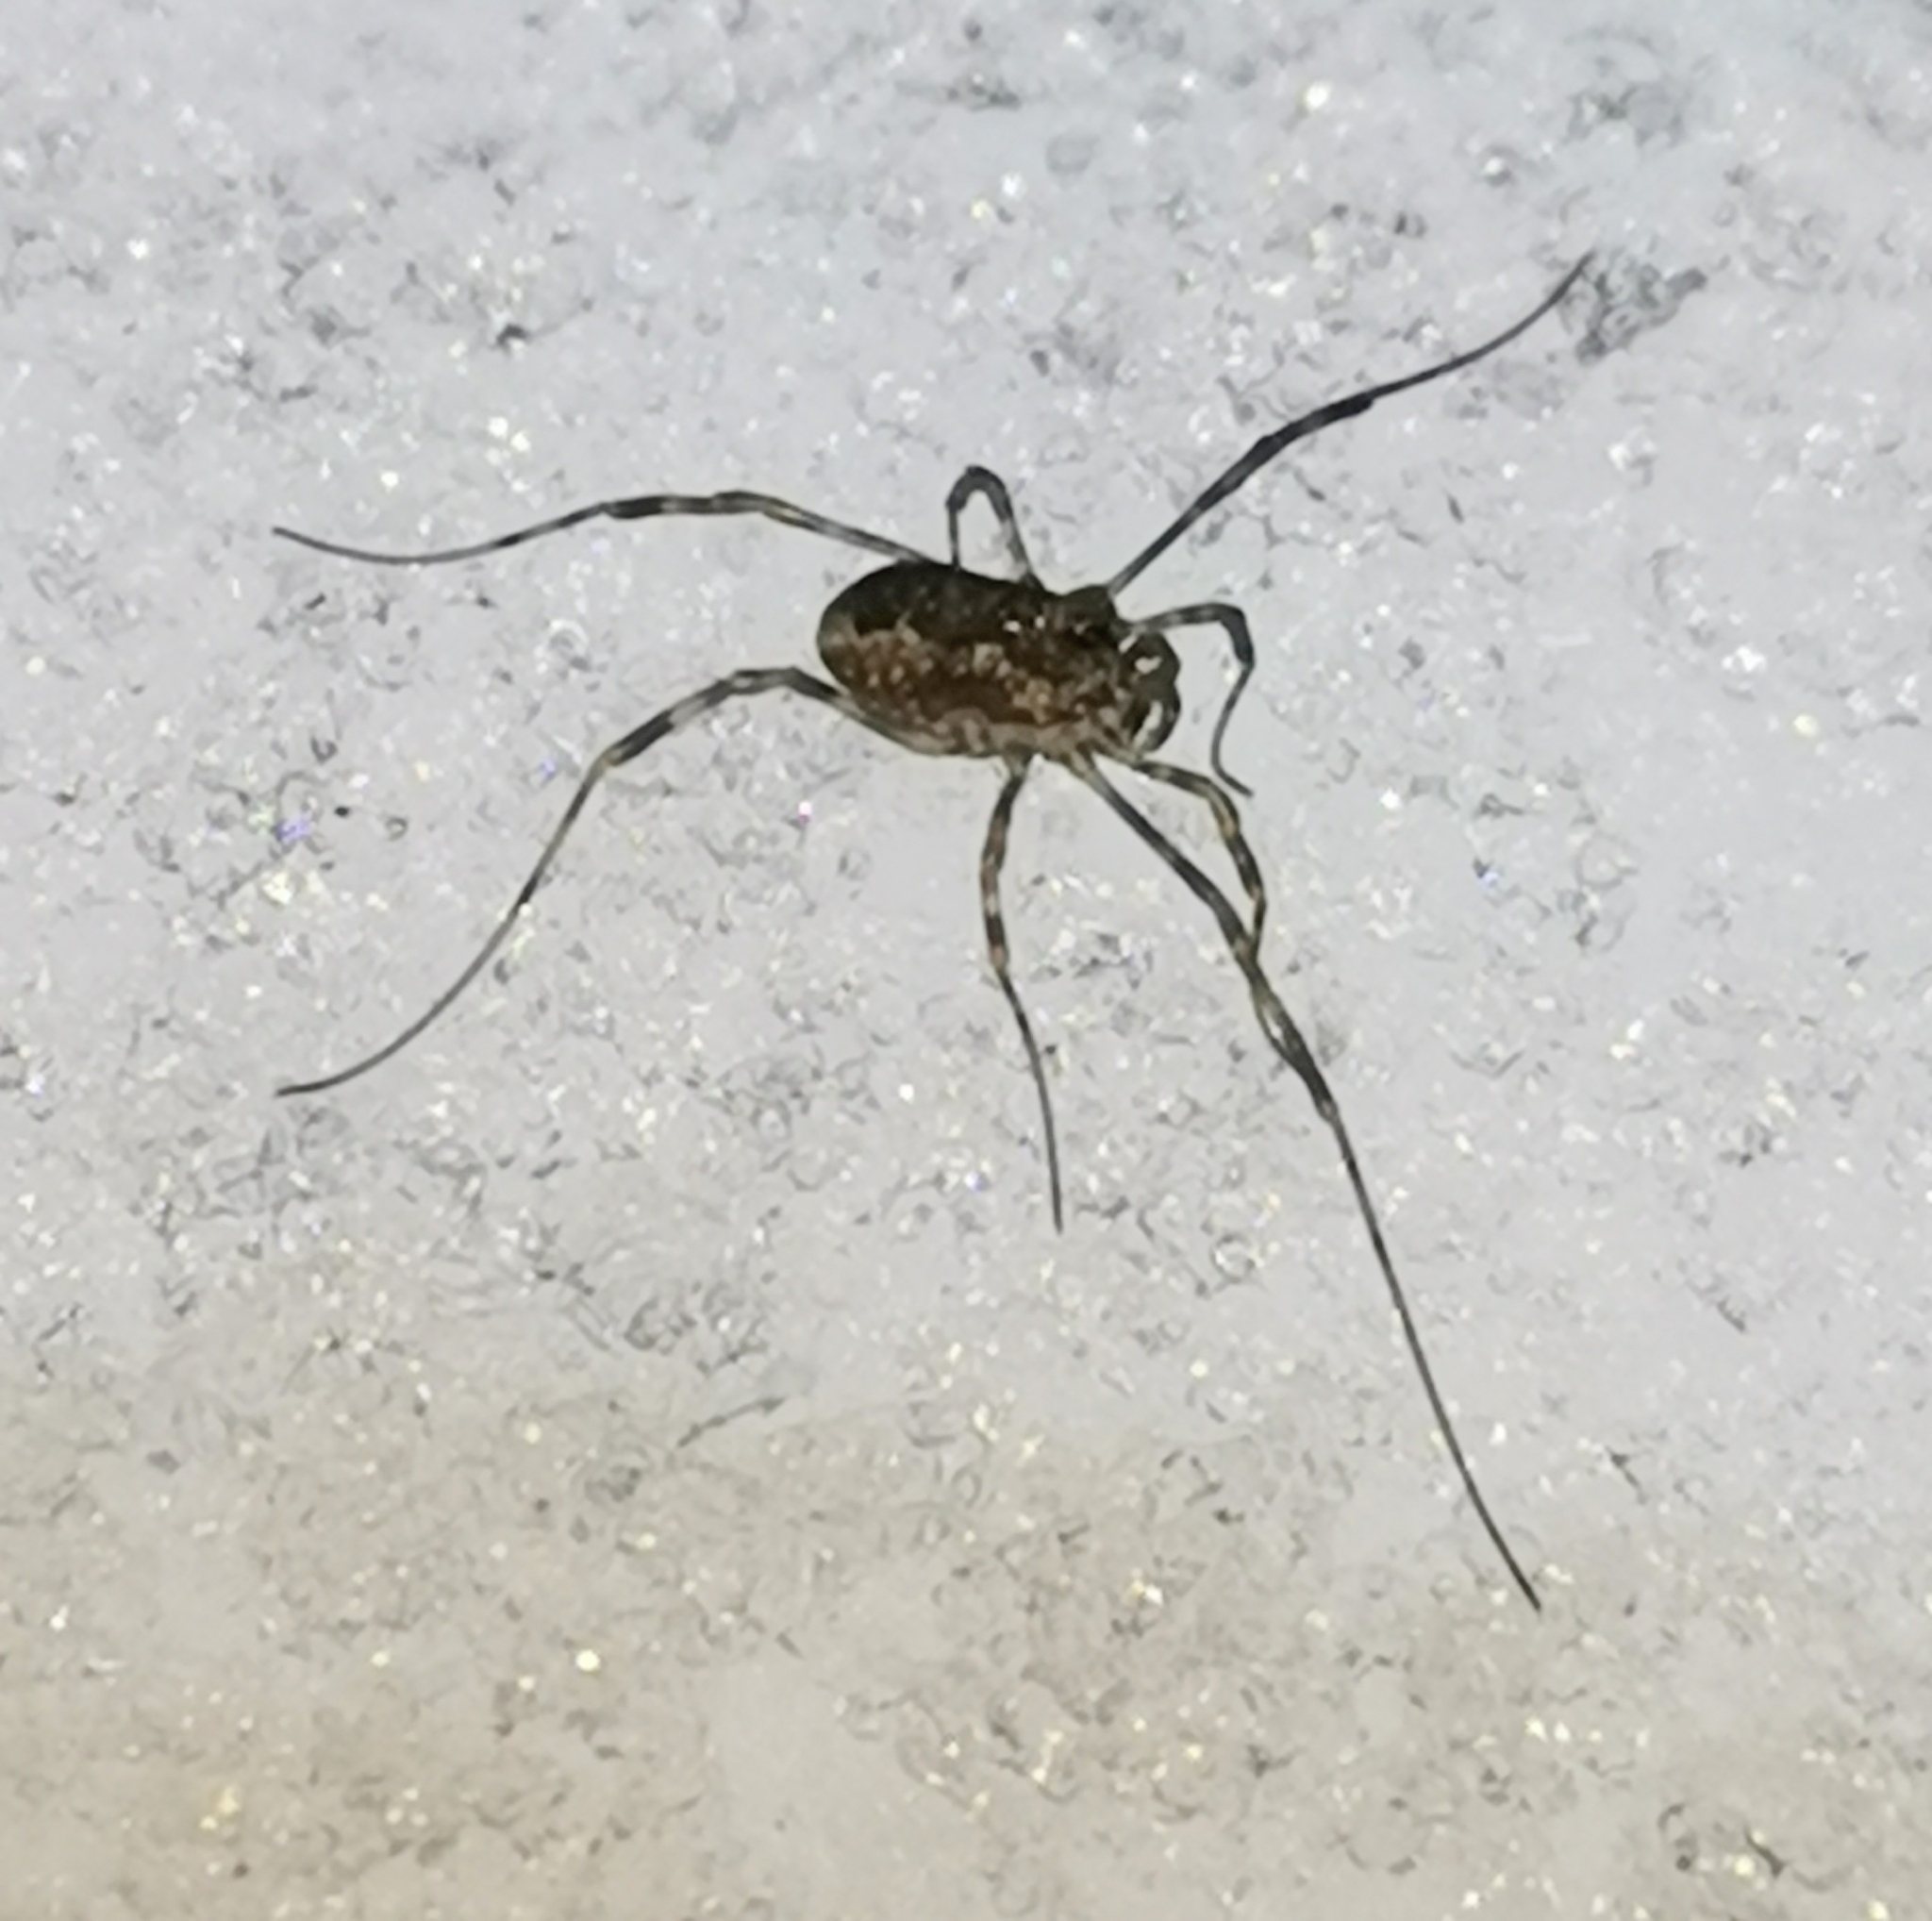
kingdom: Animalia
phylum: Arthropoda
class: Arachnida
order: Opiliones
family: Phalangiidae
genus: Rilaena
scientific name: Rilaena triangularis
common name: Spring harvestman
